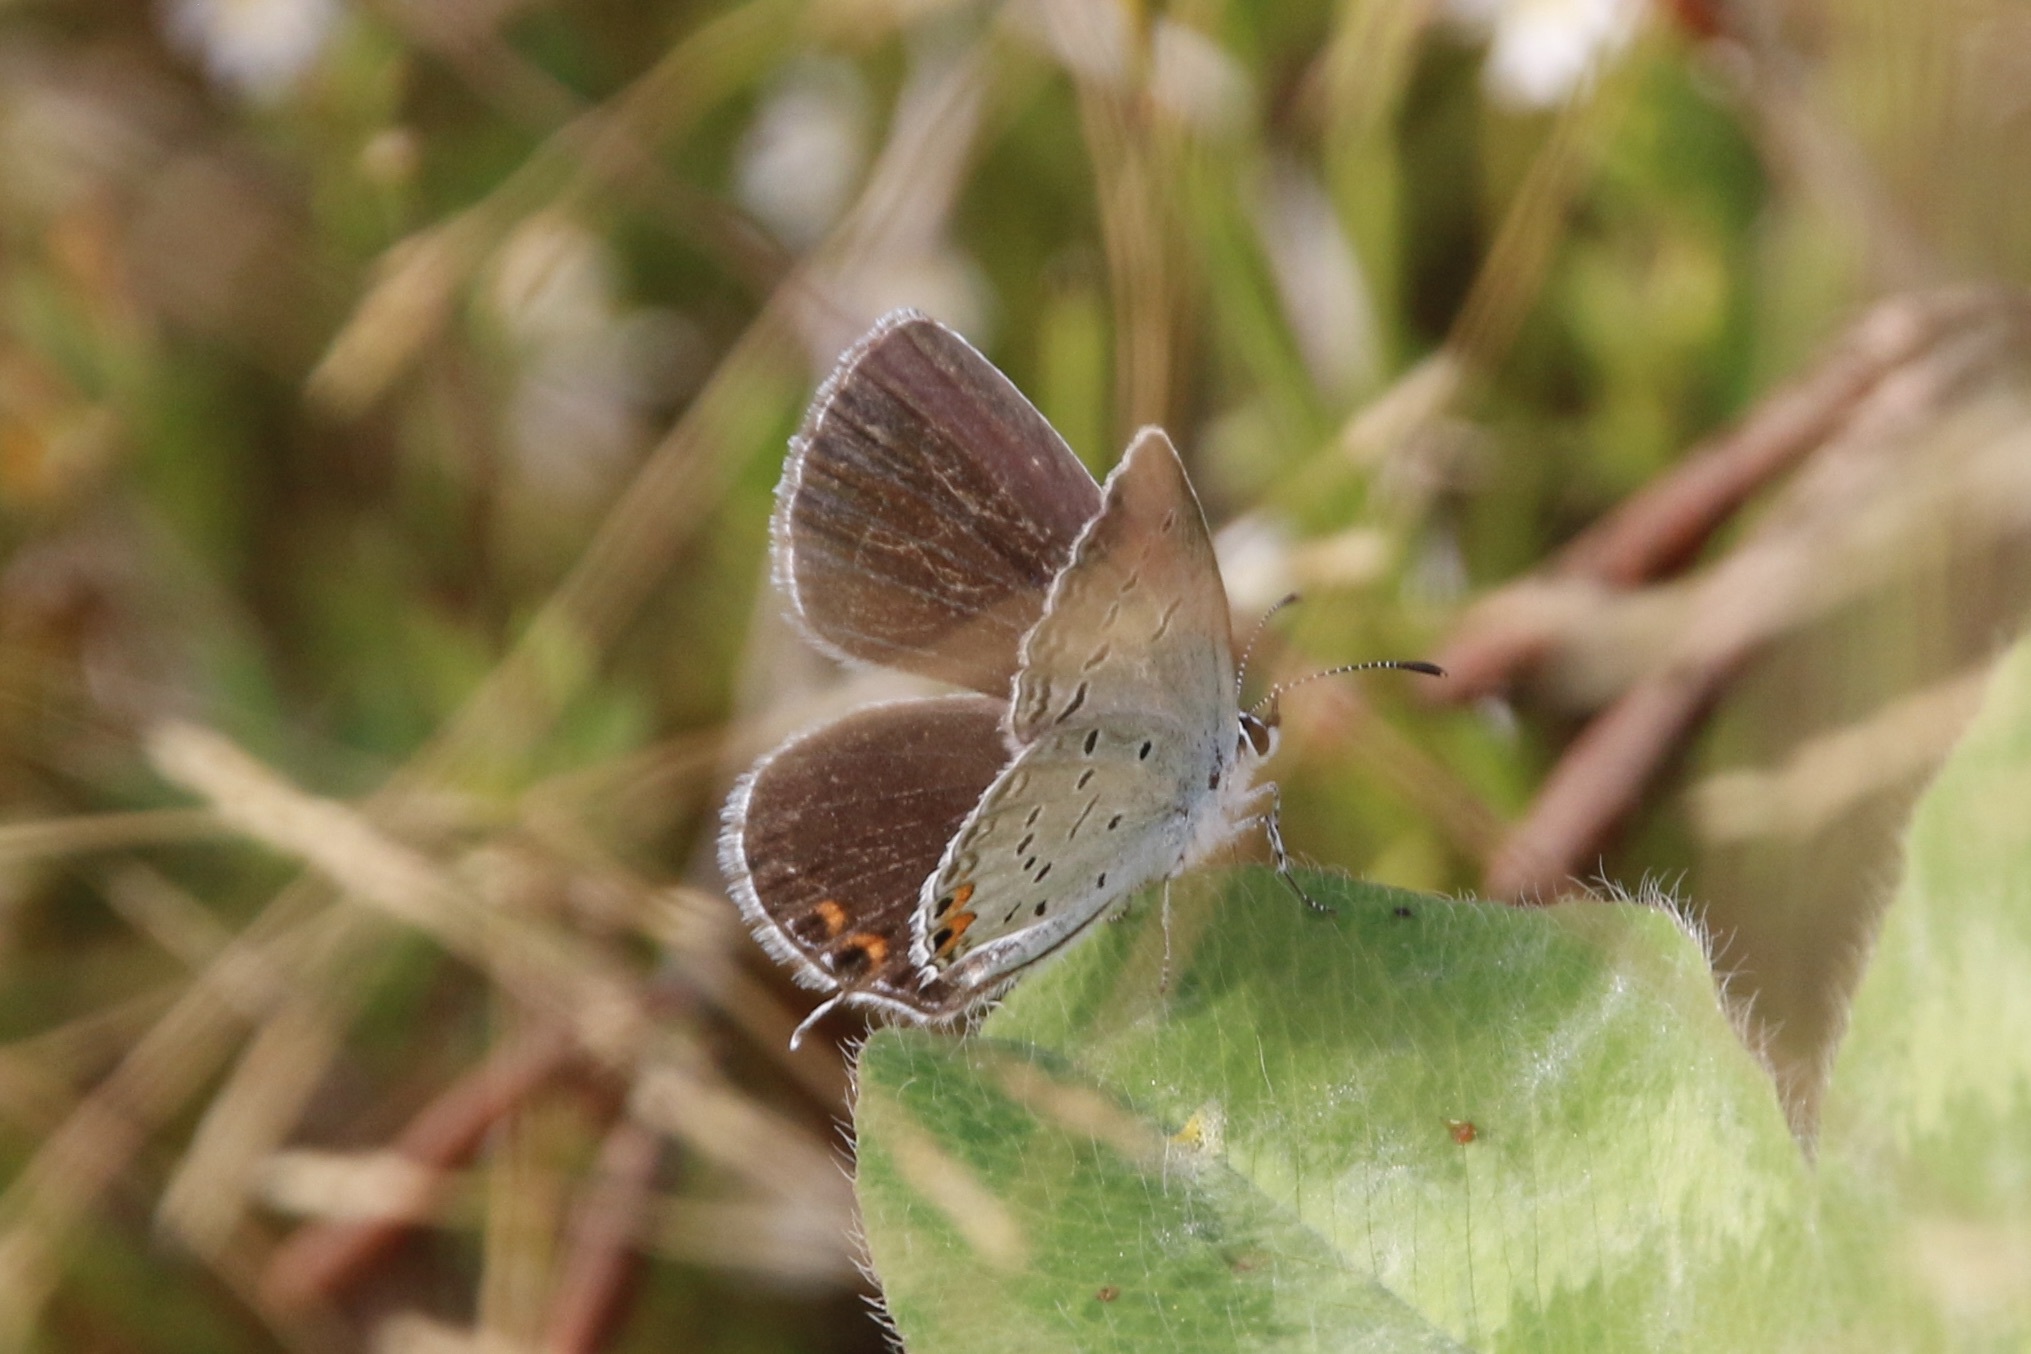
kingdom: Animalia
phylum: Arthropoda
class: Insecta
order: Lepidoptera
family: Lycaenidae
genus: Elkalyce
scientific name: Elkalyce comyntas
